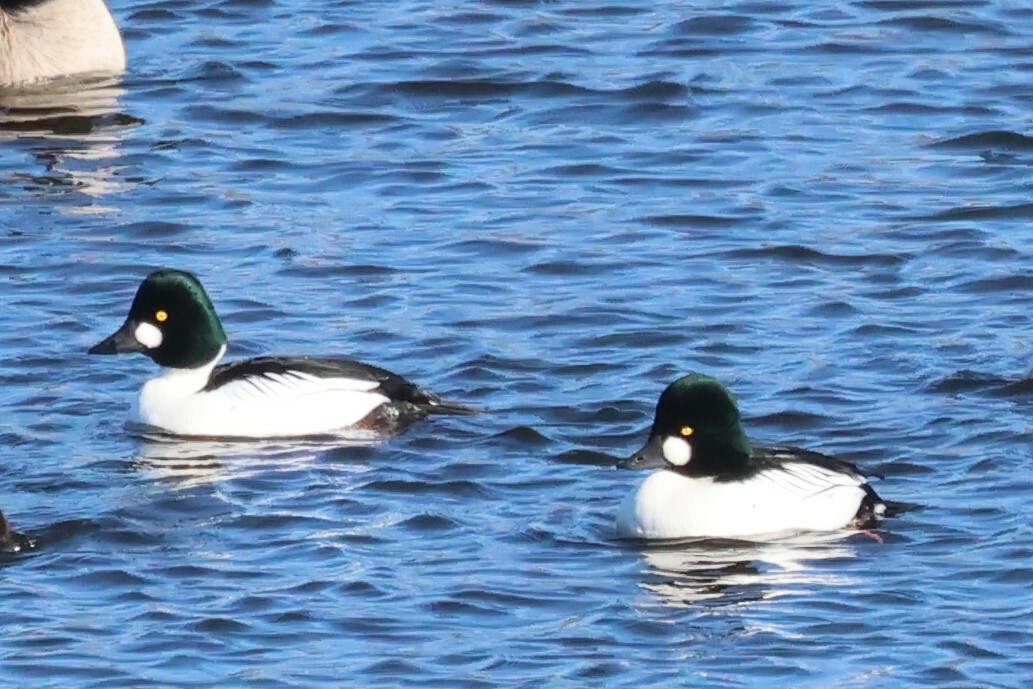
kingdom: Animalia
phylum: Chordata
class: Aves
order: Anseriformes
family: Anatidae
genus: Bucephala
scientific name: Bucephala clangula
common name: Common goldeneye
